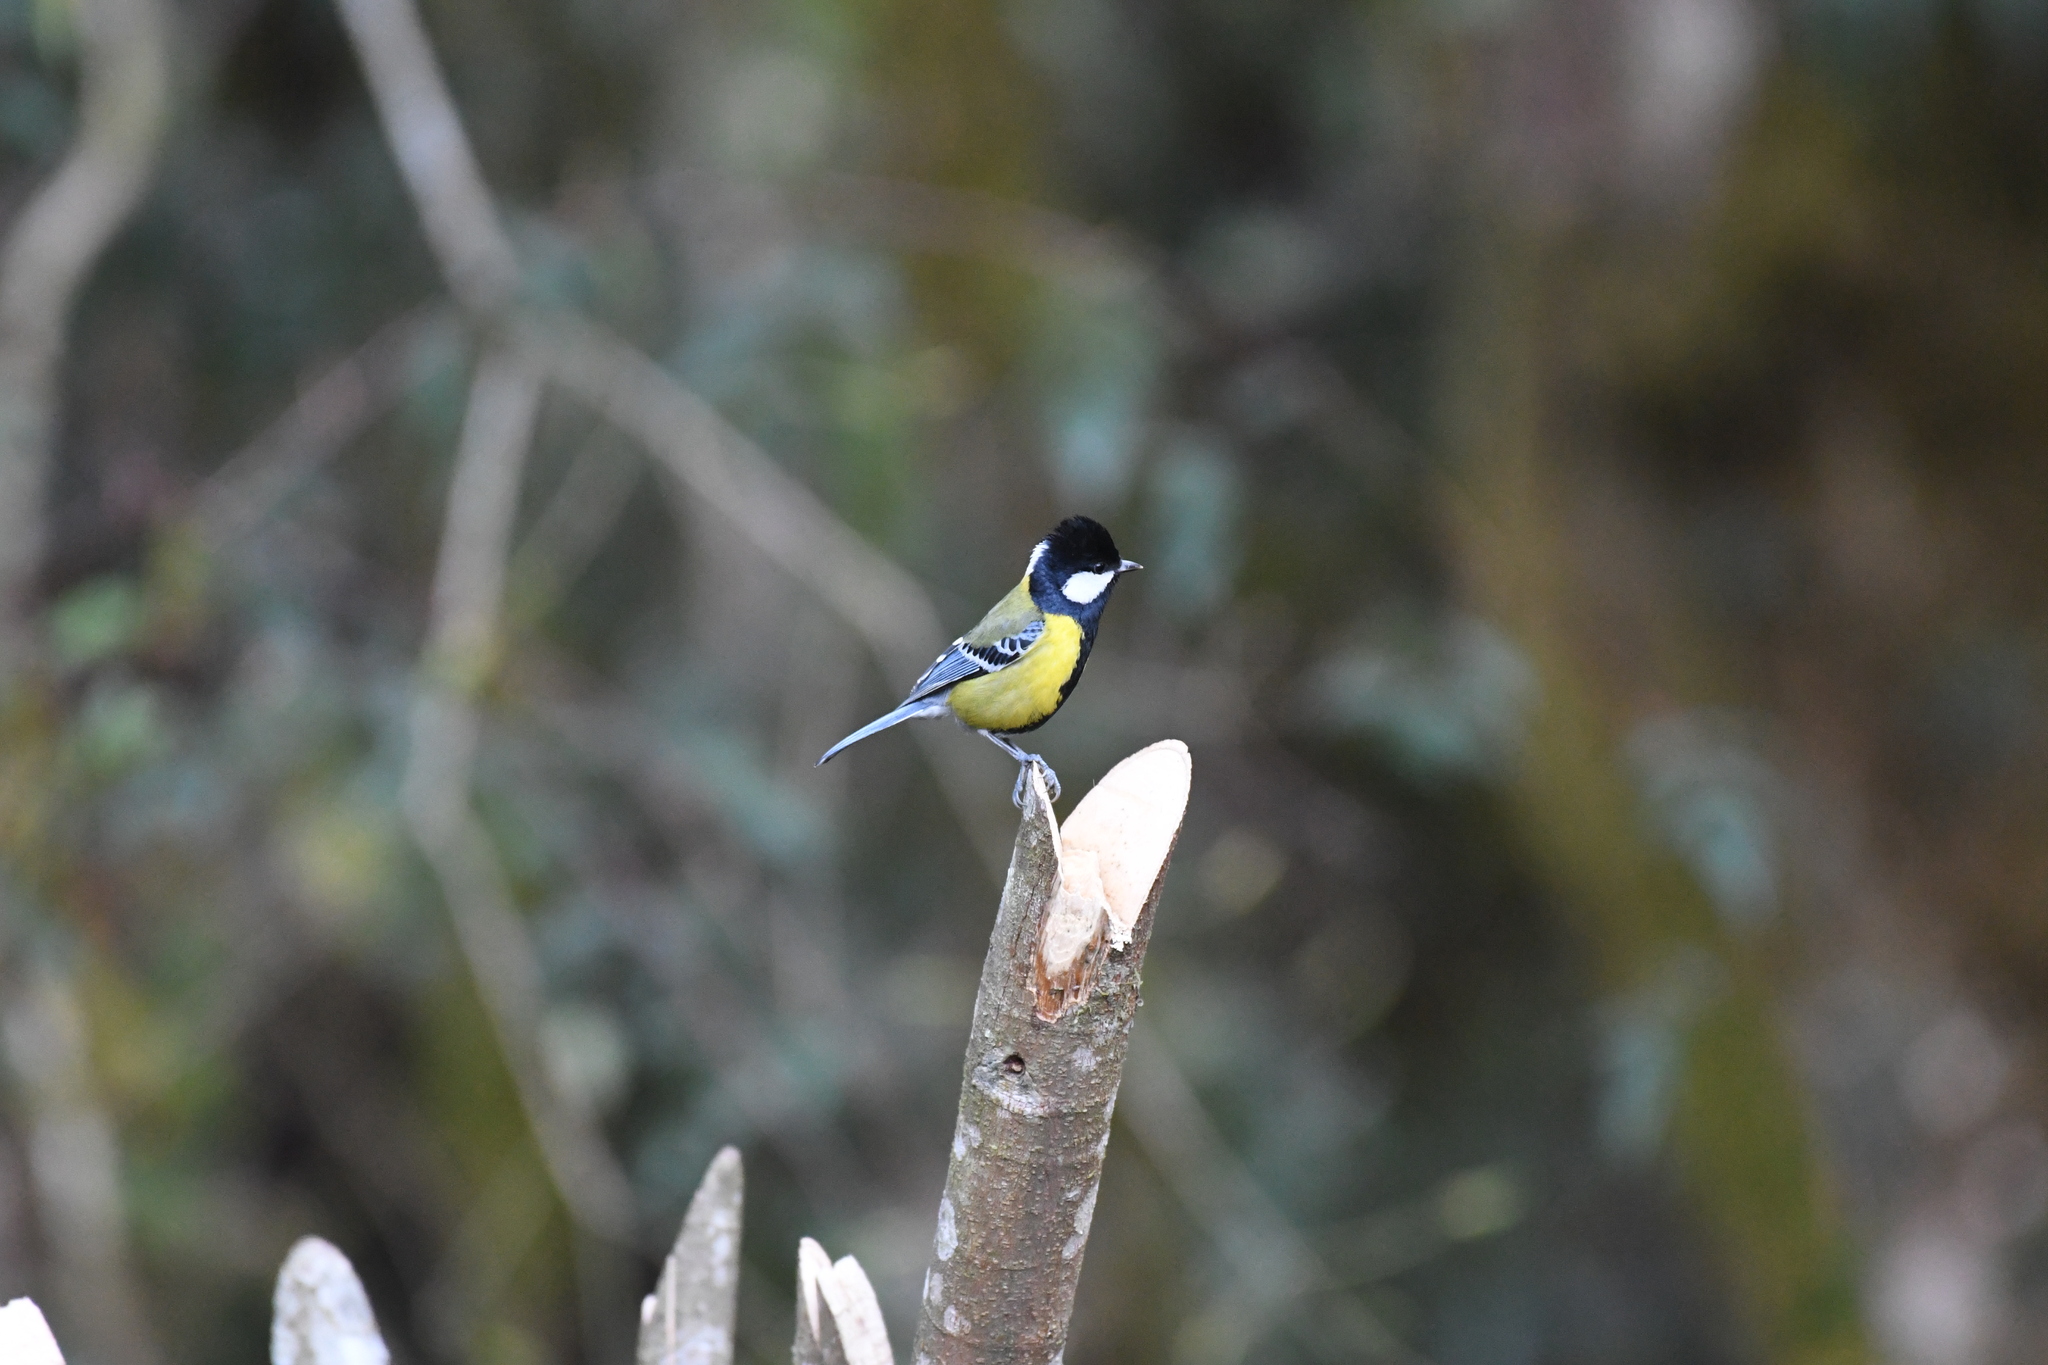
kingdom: Animalia
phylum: Chordata
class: Aves
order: Passeriformes
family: Paridae
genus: Parus
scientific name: Parus monticolus
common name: Green-backed tit
